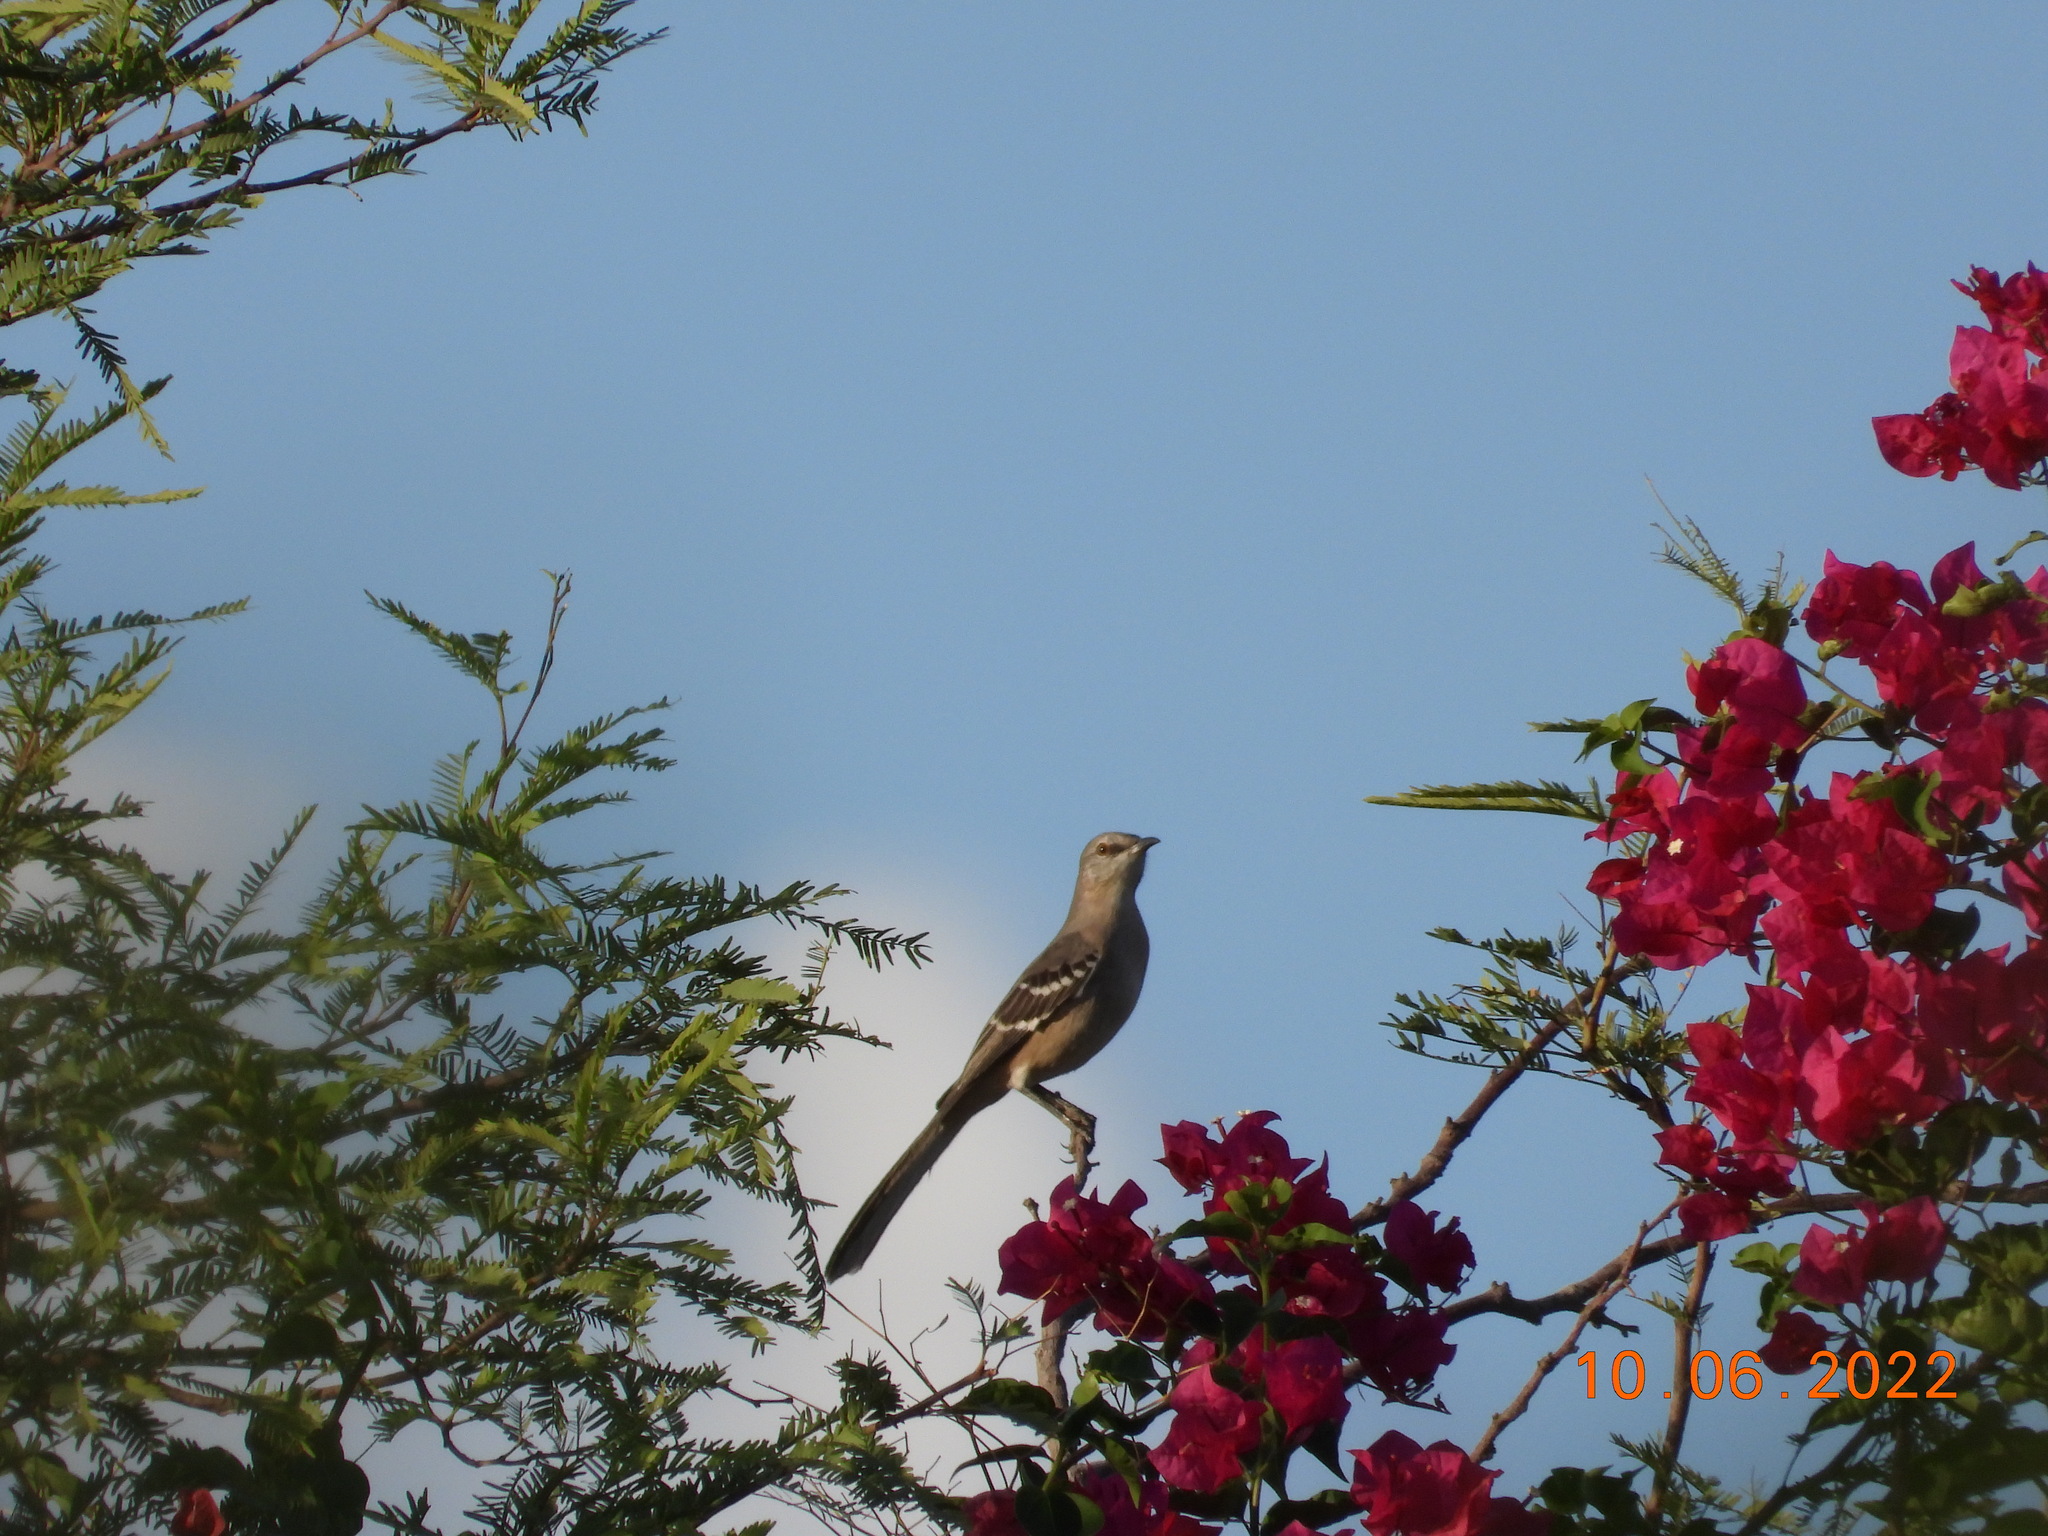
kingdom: Animalia
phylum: Chordata
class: Aves
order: Passeriformes
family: Mimidae
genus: Mimus
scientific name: Mimus polyglottos
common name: Northern mockingbird
